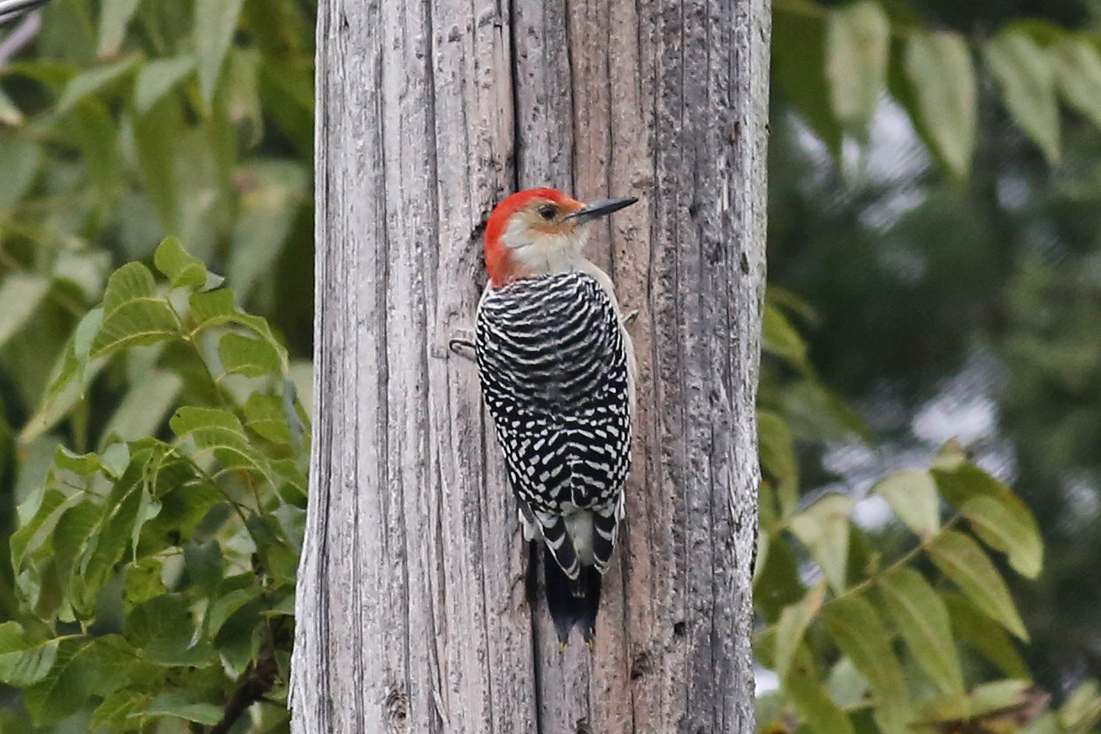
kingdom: Animalia
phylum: Chordata
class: Aves
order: Piciformes
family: Picidae
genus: Melanerpes
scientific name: Melanerpes carolinus
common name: Red-bellied woodpecker
